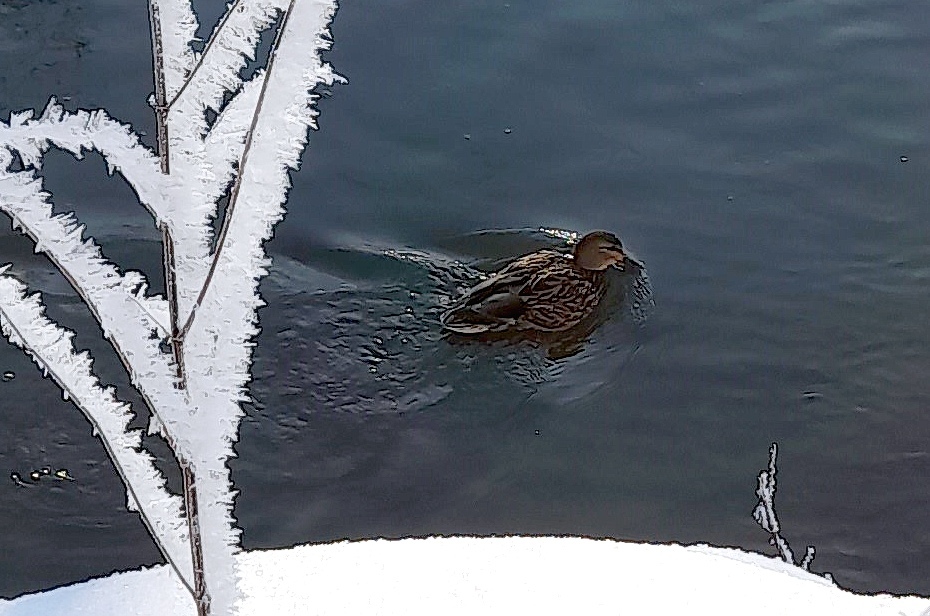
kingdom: Animalia
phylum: Chordata
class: Aves
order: Anseriformes
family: Anatidae
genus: Anas
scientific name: Anas platyrhynchos
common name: Mallard
